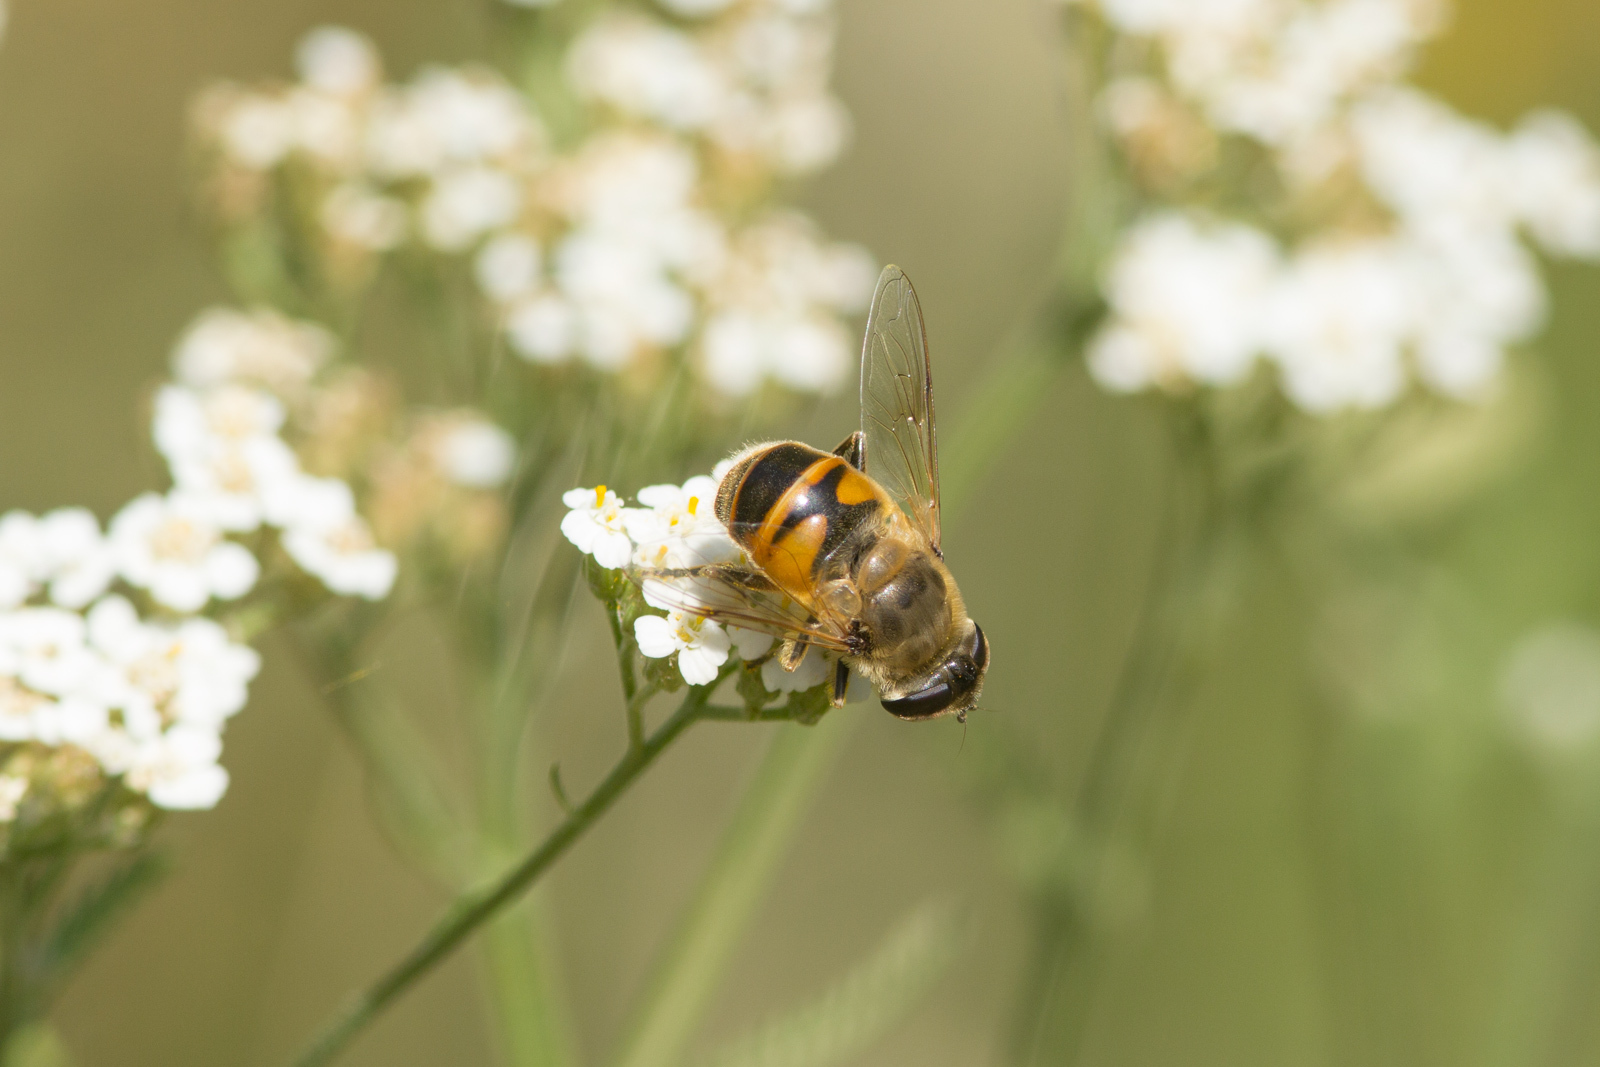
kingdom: Animalia
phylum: Arthropoda
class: Insecta
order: Diptera
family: Syrphidae
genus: Eristalis
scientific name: Eristalis tenax
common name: Drone fly
